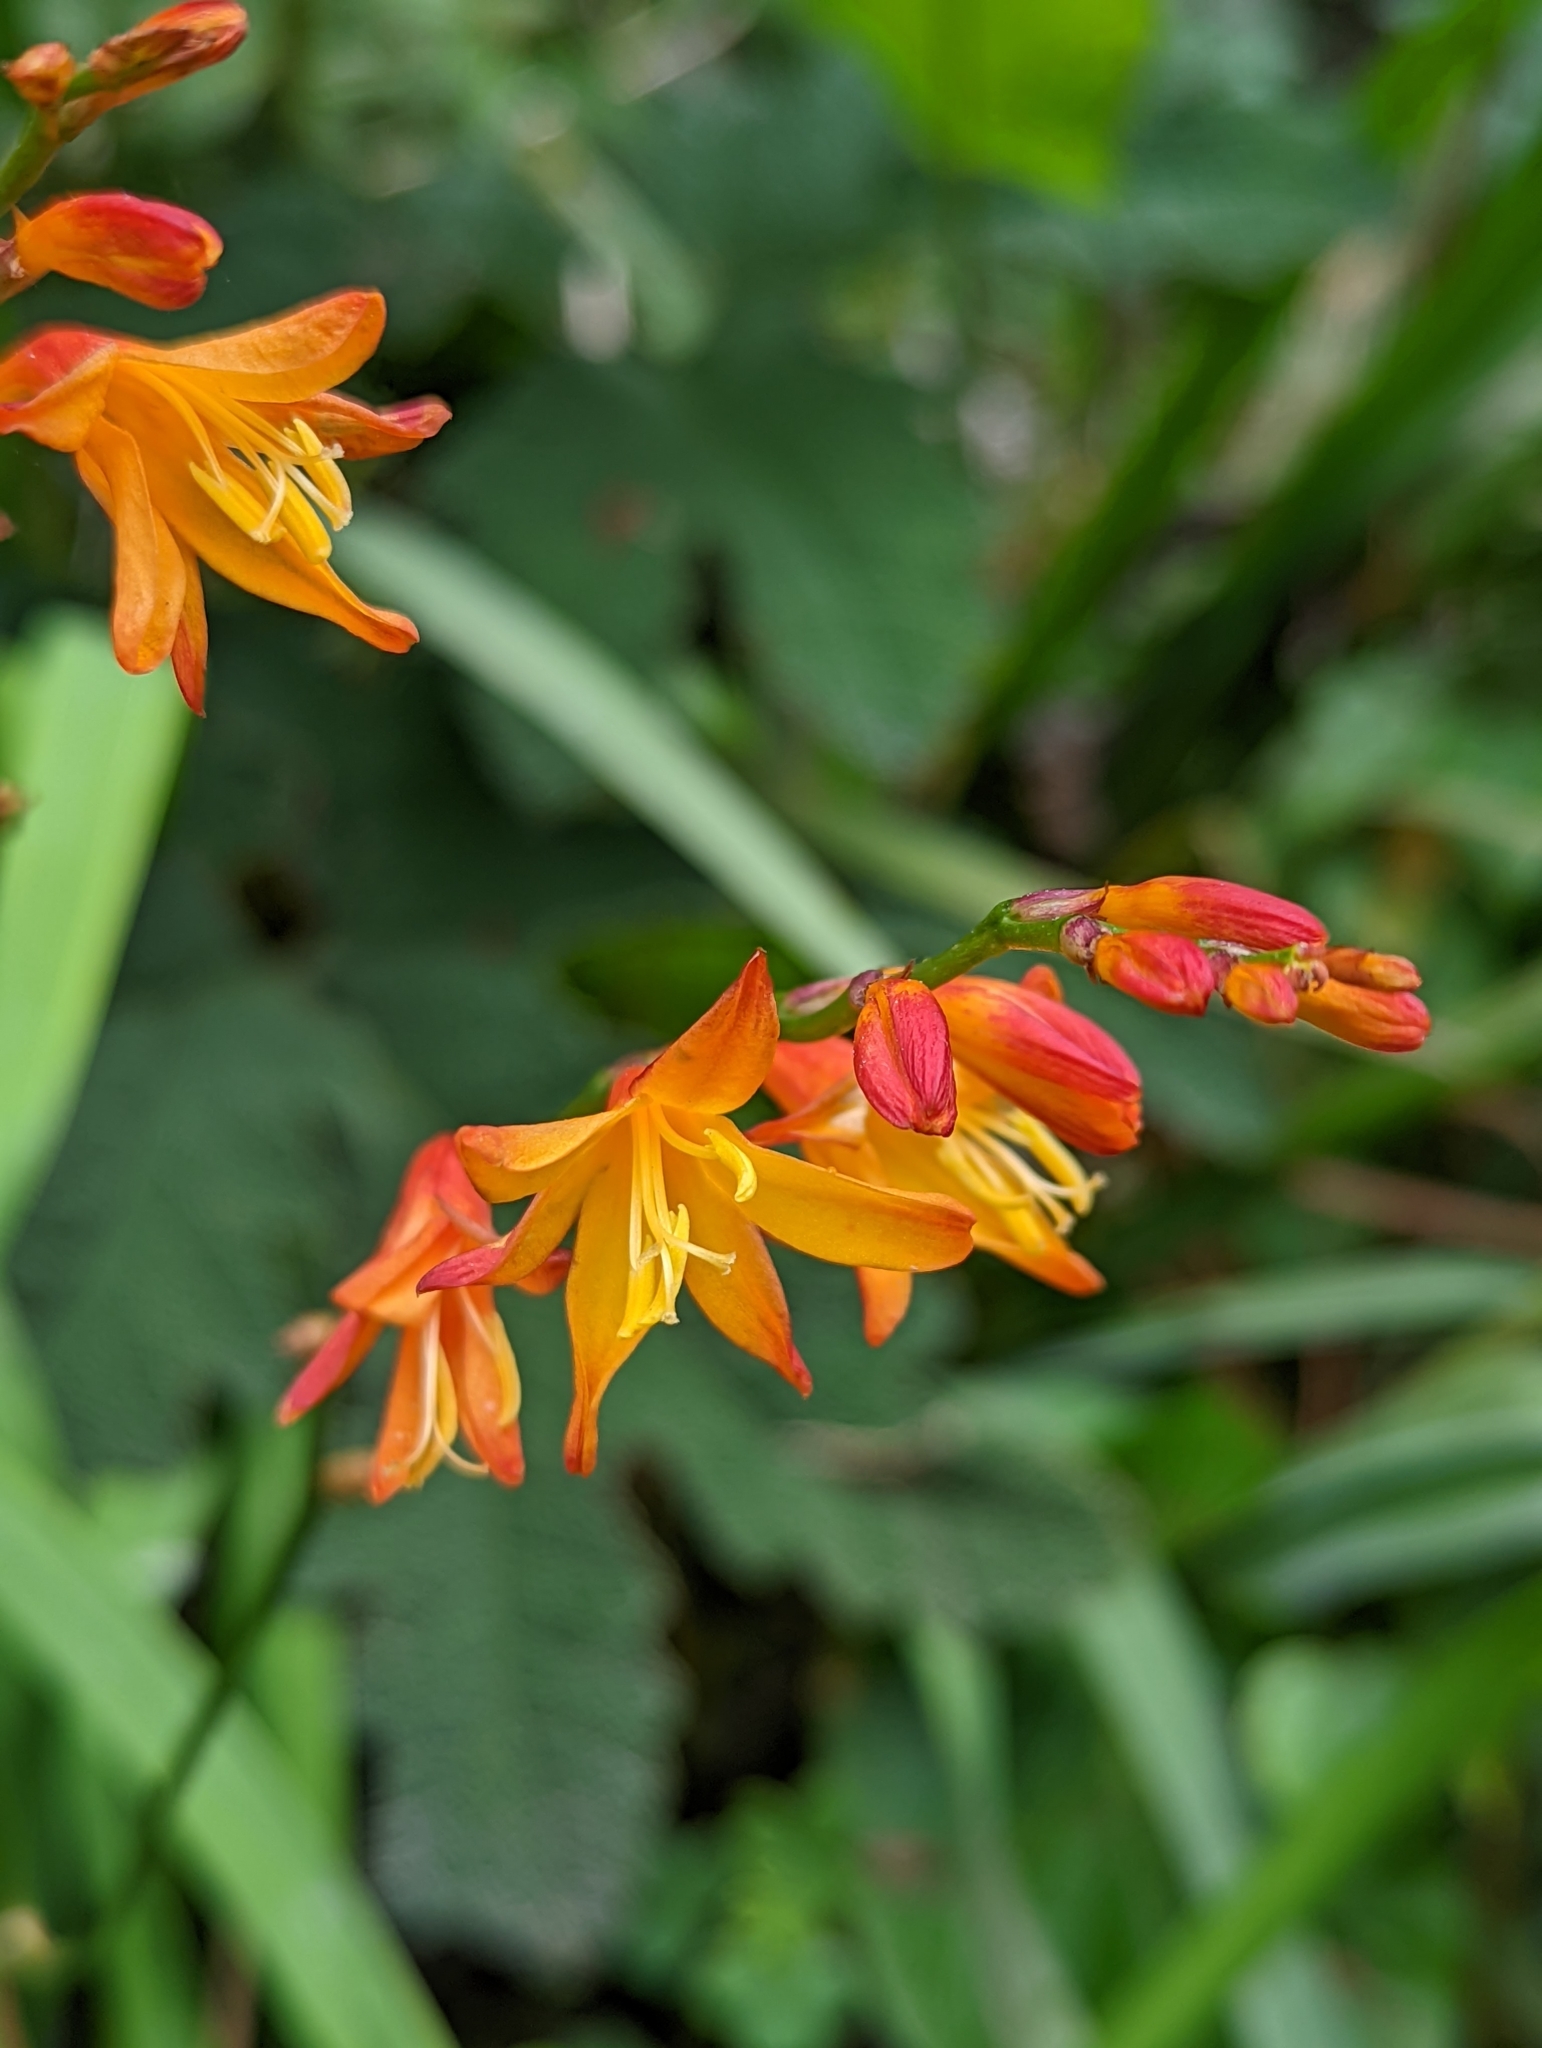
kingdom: Plantae
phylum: Tracheophyta
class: Liliopsida
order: Asparagales
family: Iridaceae
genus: Crocosmia
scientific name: Crocosmia crocosmiiflora
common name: Montbretia
